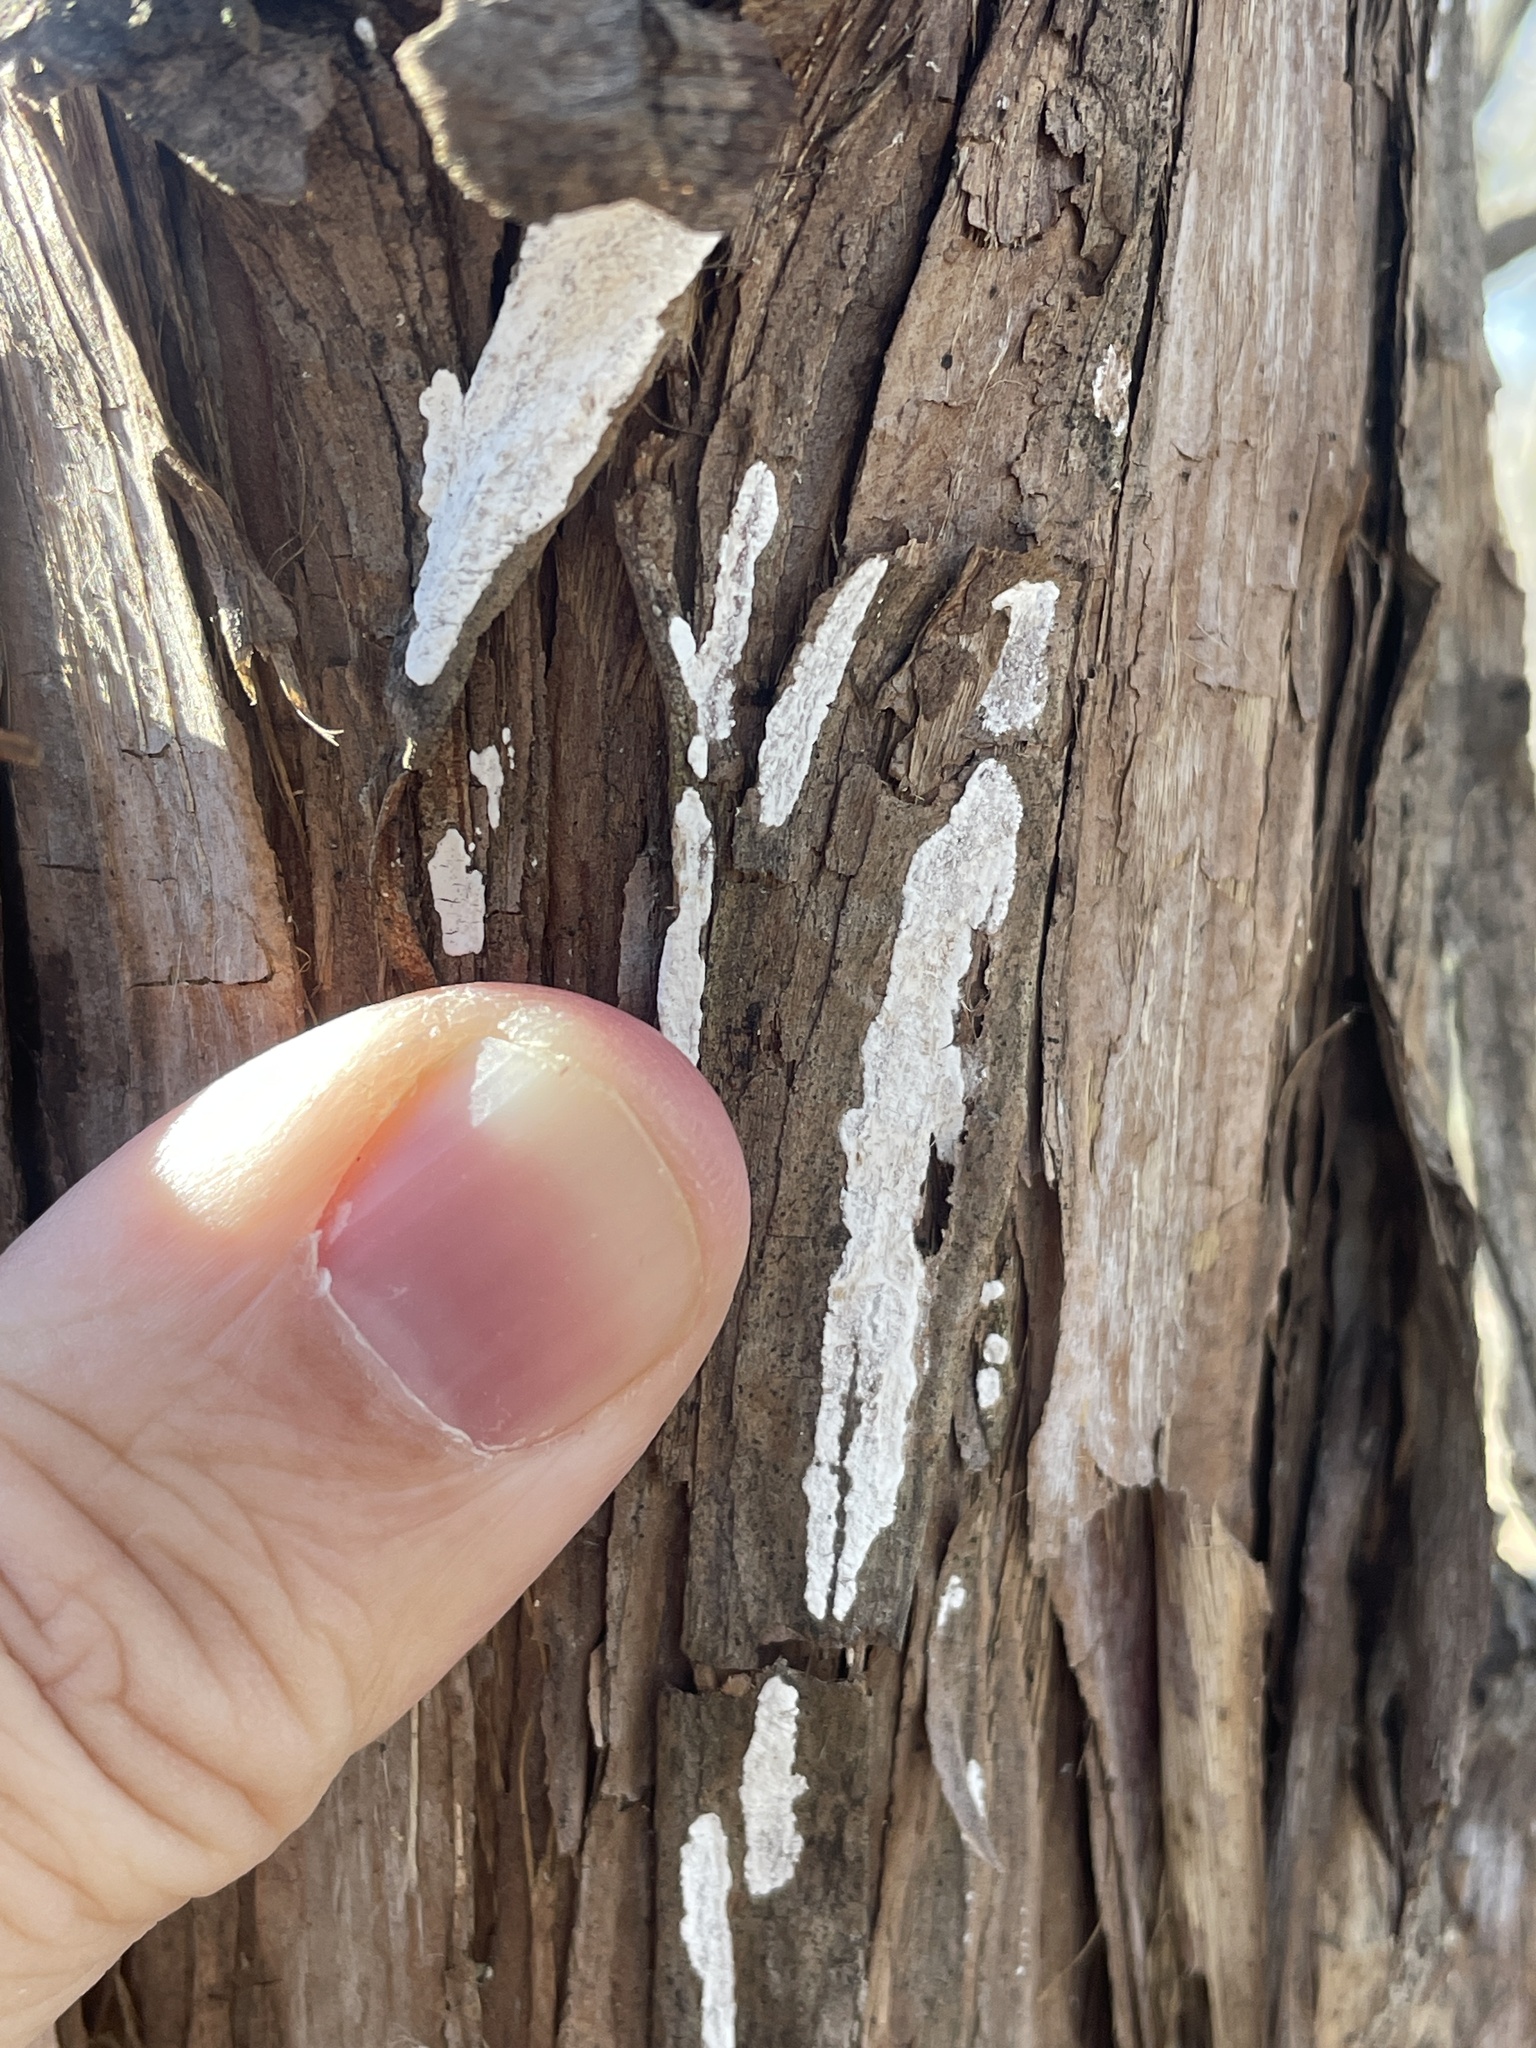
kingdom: Fungi
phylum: Basidiomycota
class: Agaricomycetes
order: Agaricales
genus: Dendrothele
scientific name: Dendrothele nivosa
